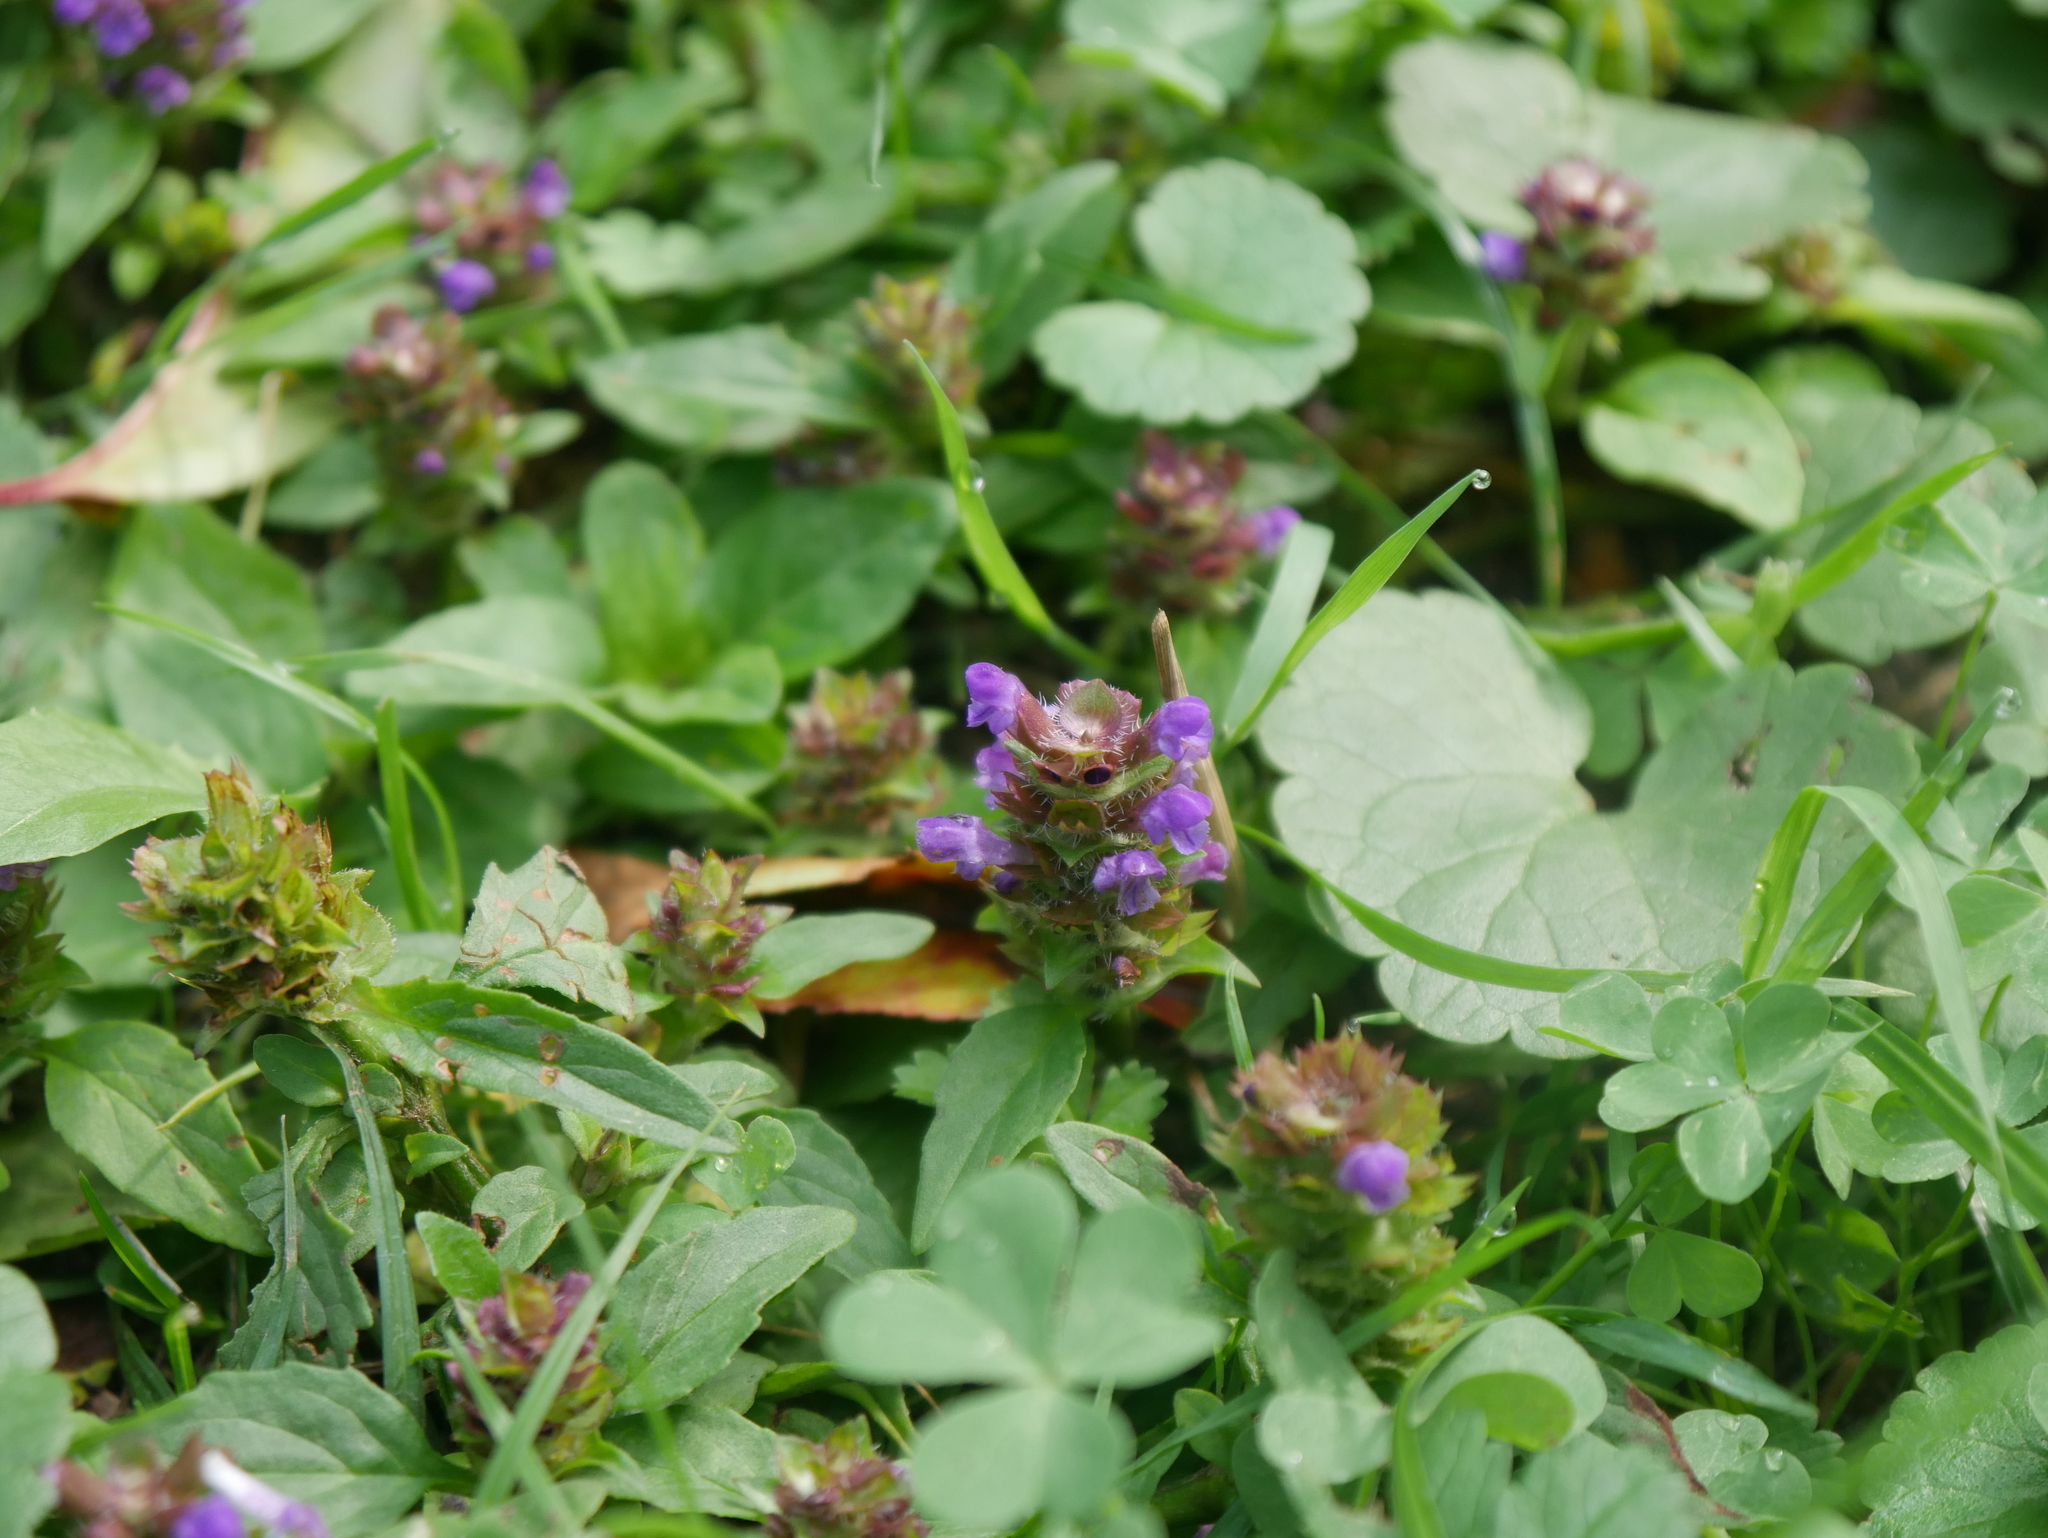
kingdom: Plantae
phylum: Tracheophyta
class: Magnoliopsida
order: Lamiales
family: Lamiaceae
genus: Prunella
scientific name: Prunella vulgaris
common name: Heal-all
